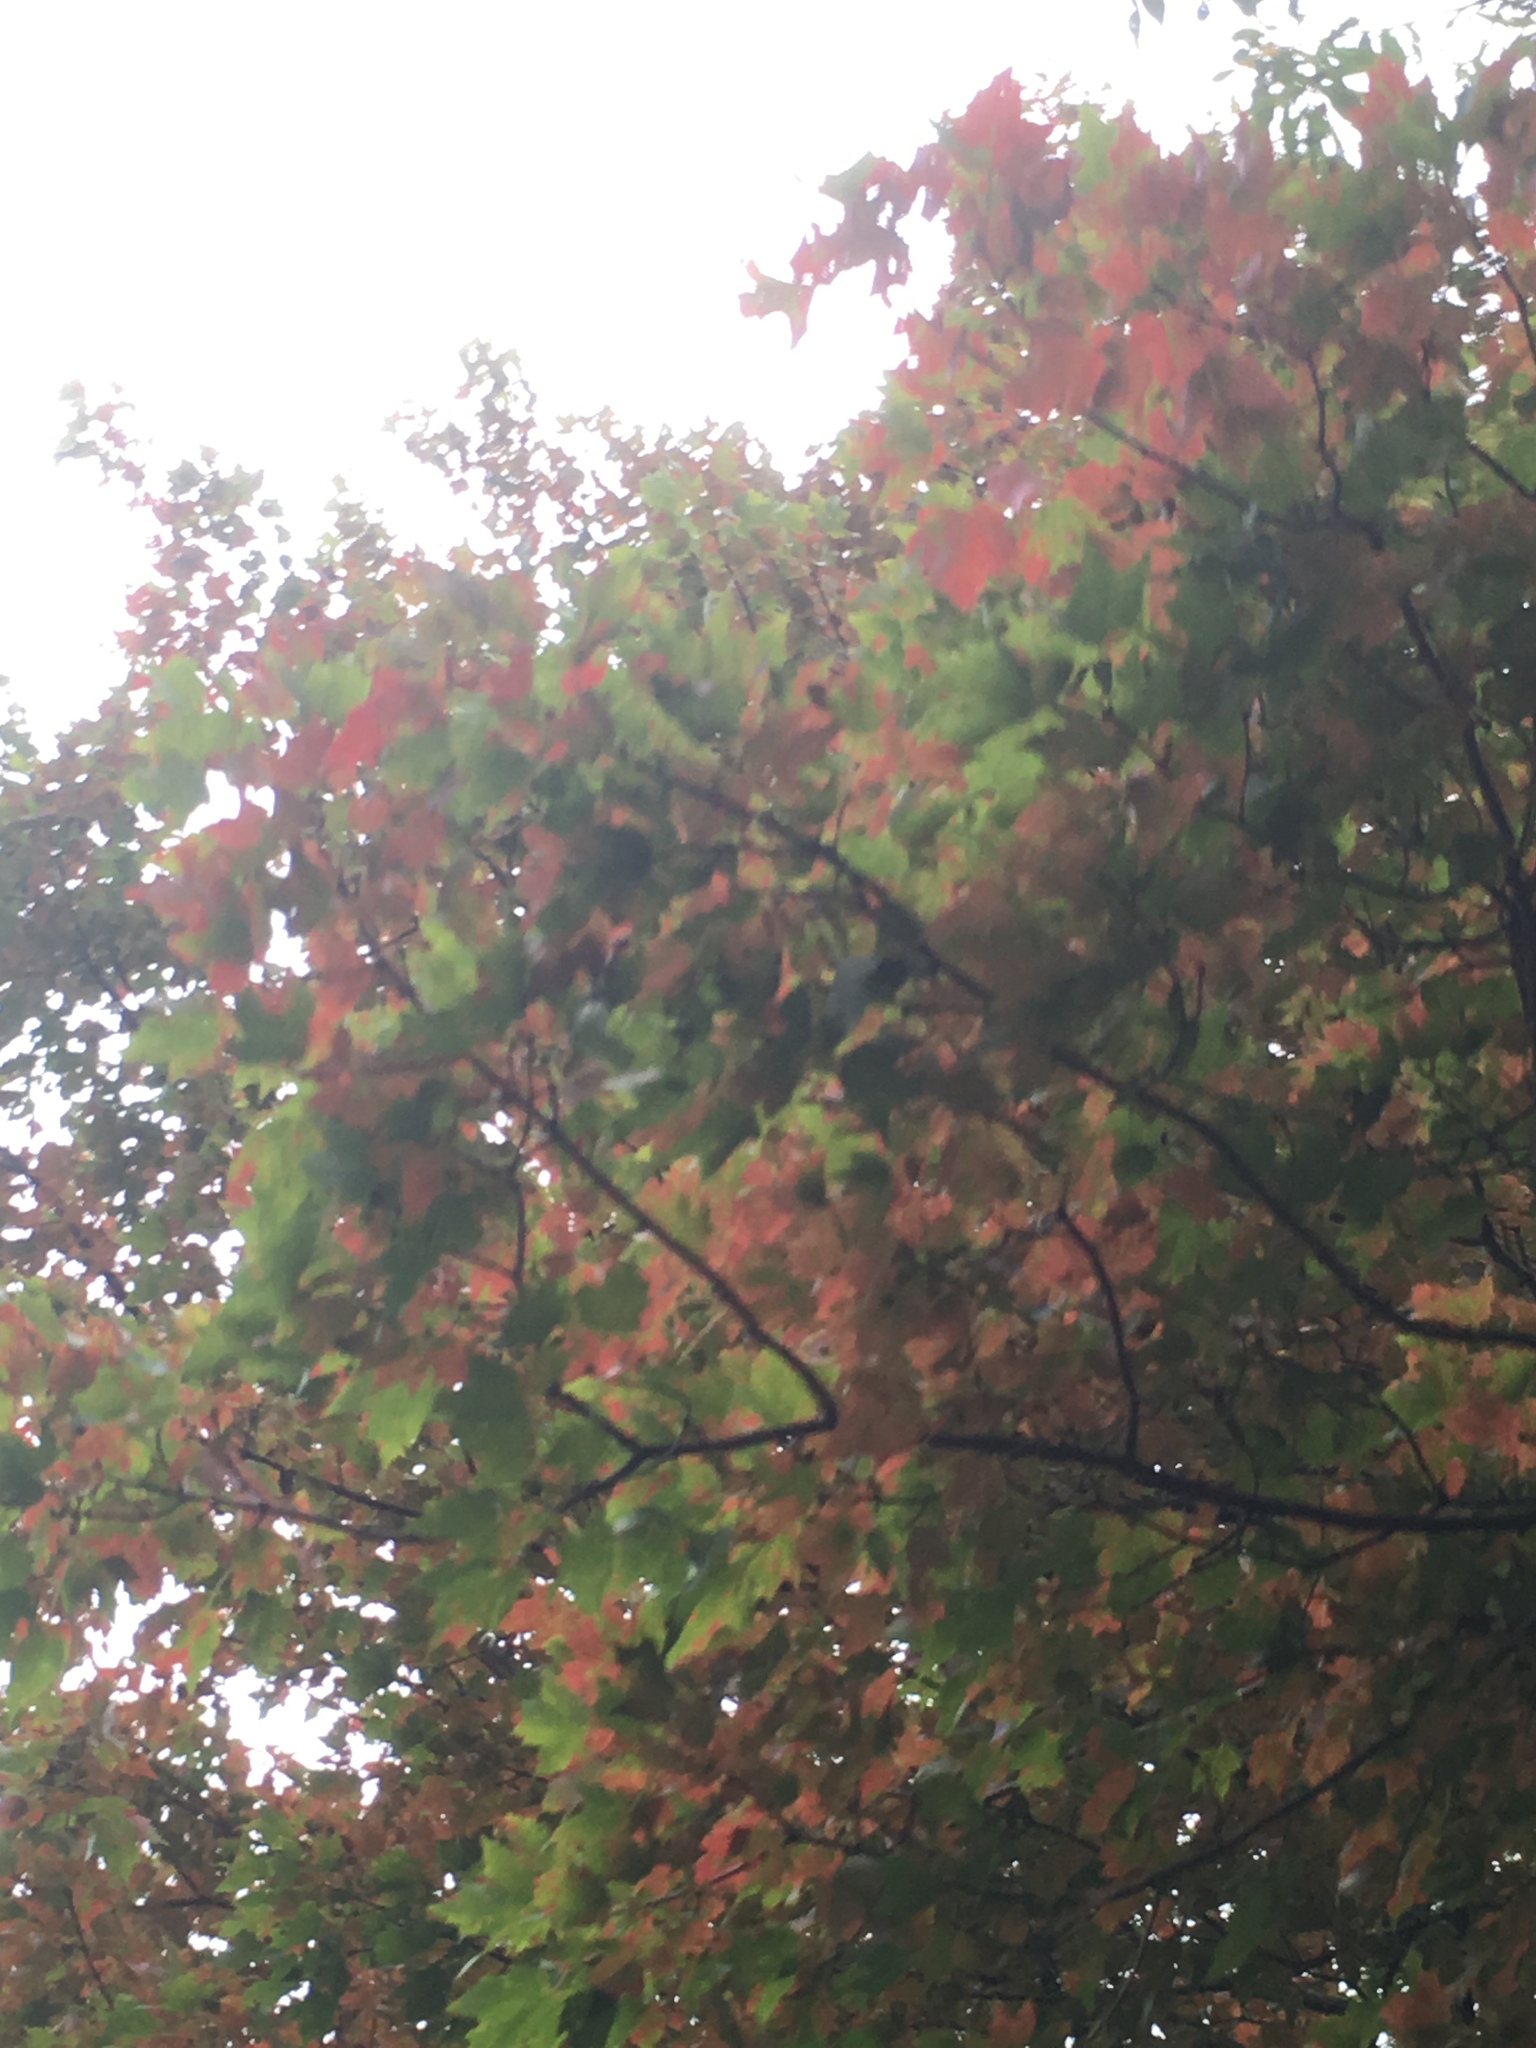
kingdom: Plantae
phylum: Tracheophyta
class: Magnoliopsida
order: Sapindales
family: Sapindaceae
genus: Acer
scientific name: Acer rubrum
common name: Red maple
